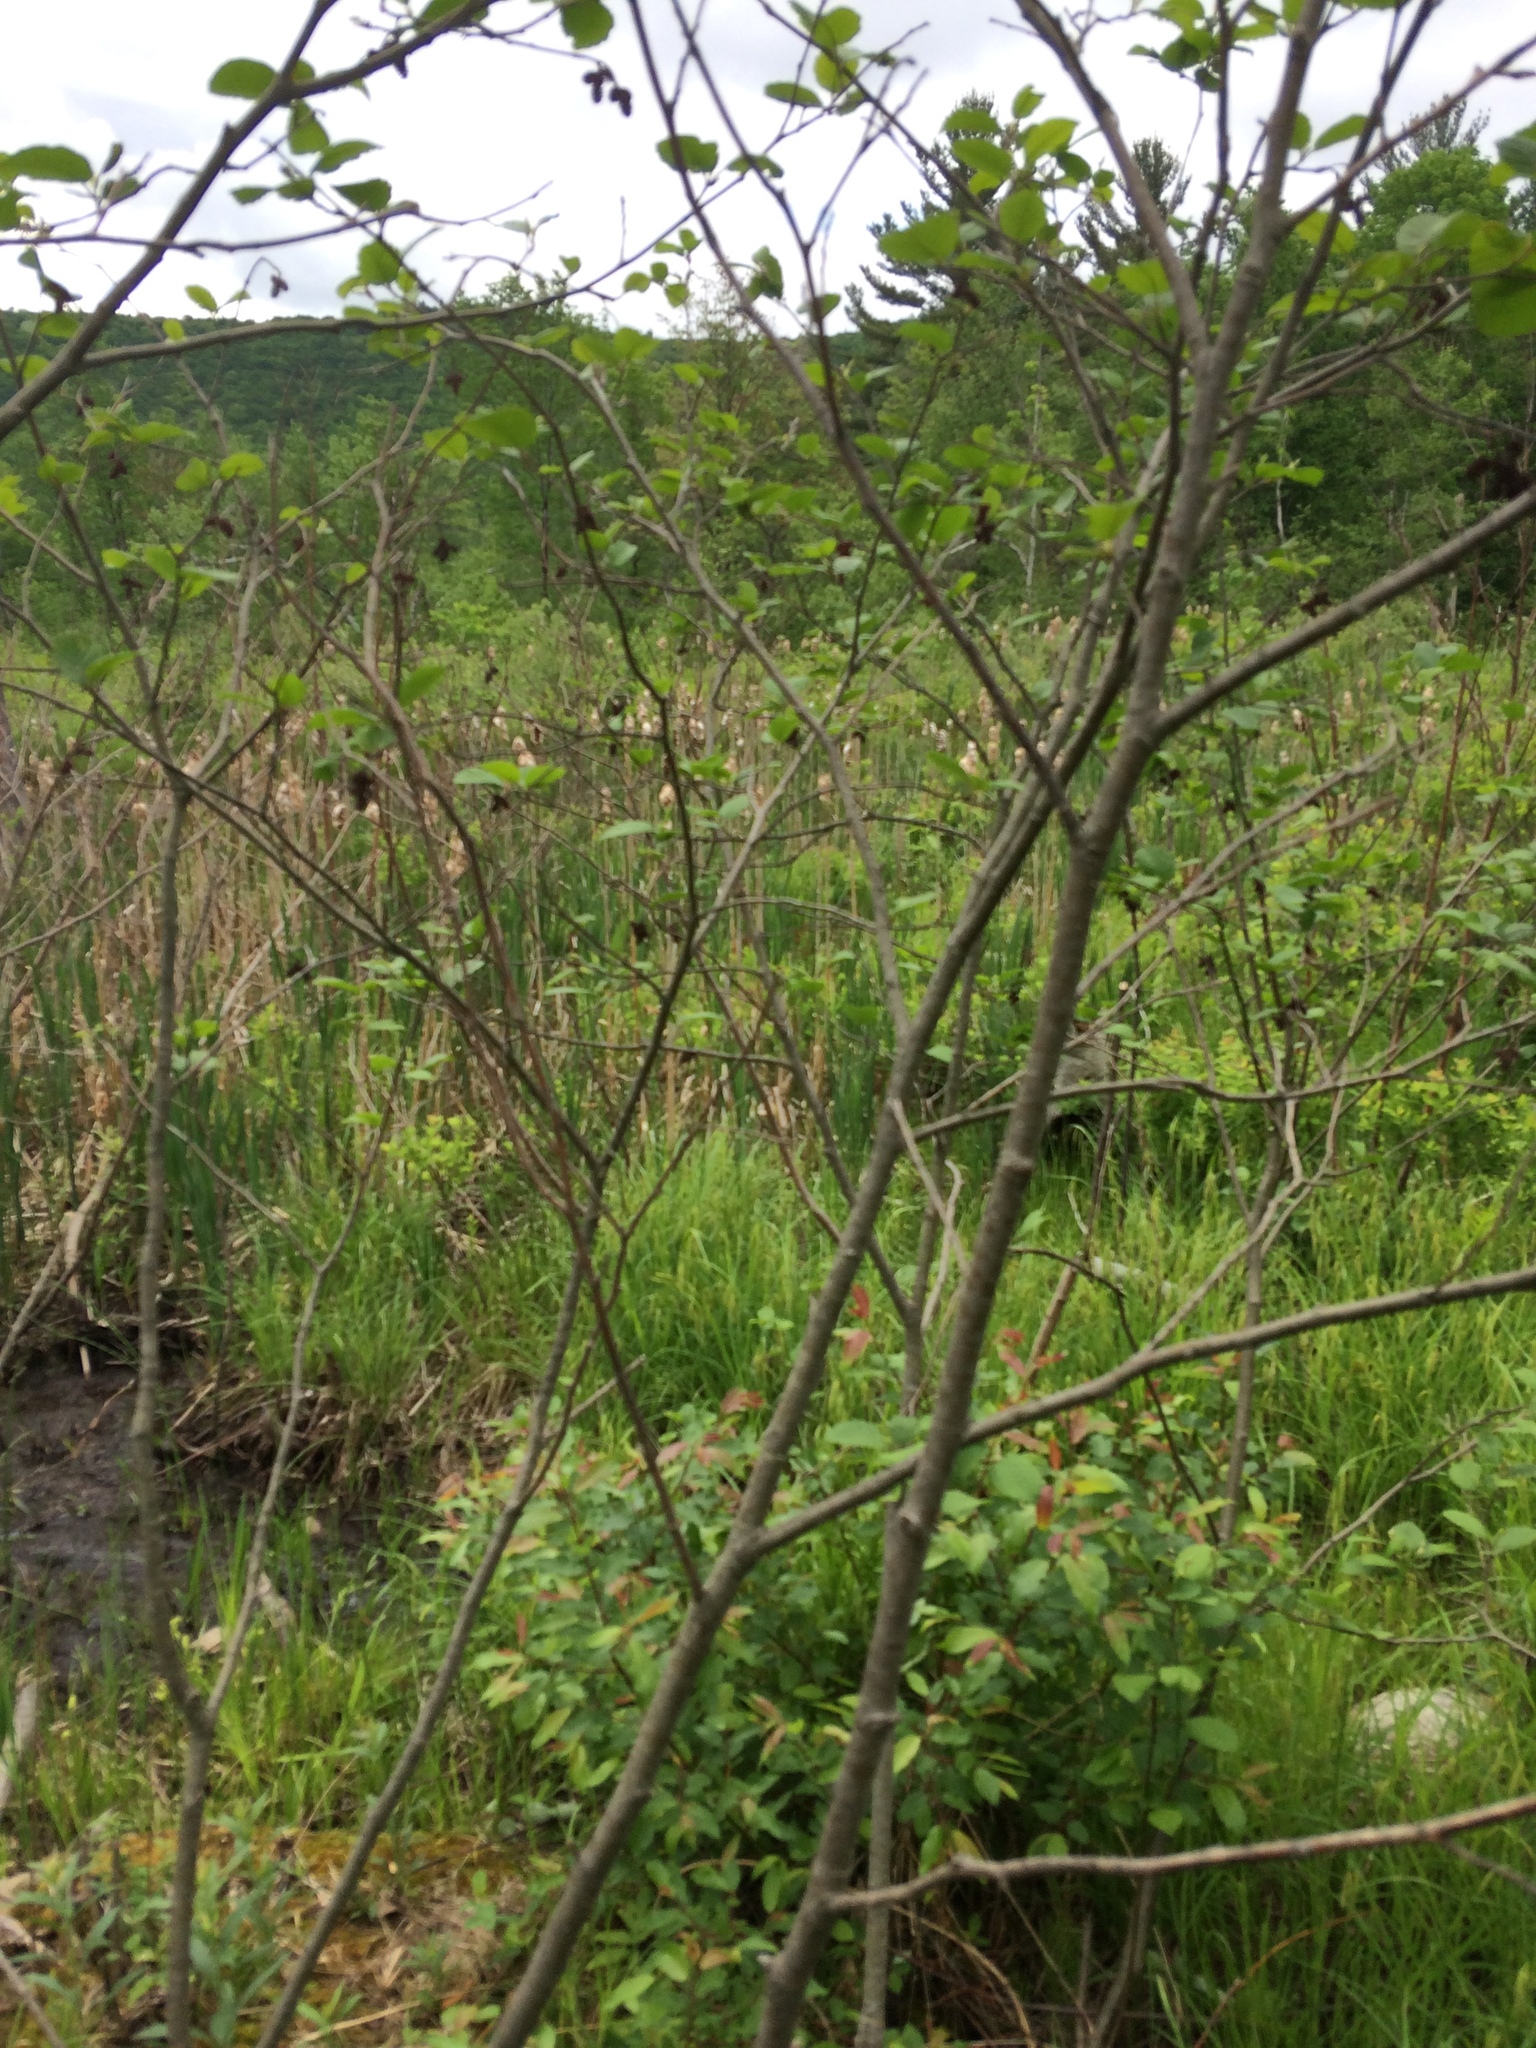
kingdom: Plantae
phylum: Tracheophyta
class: Magnoliopsida
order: Fagales
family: Betulaceae
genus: Alnus
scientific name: Alnus incana
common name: Grey alder
